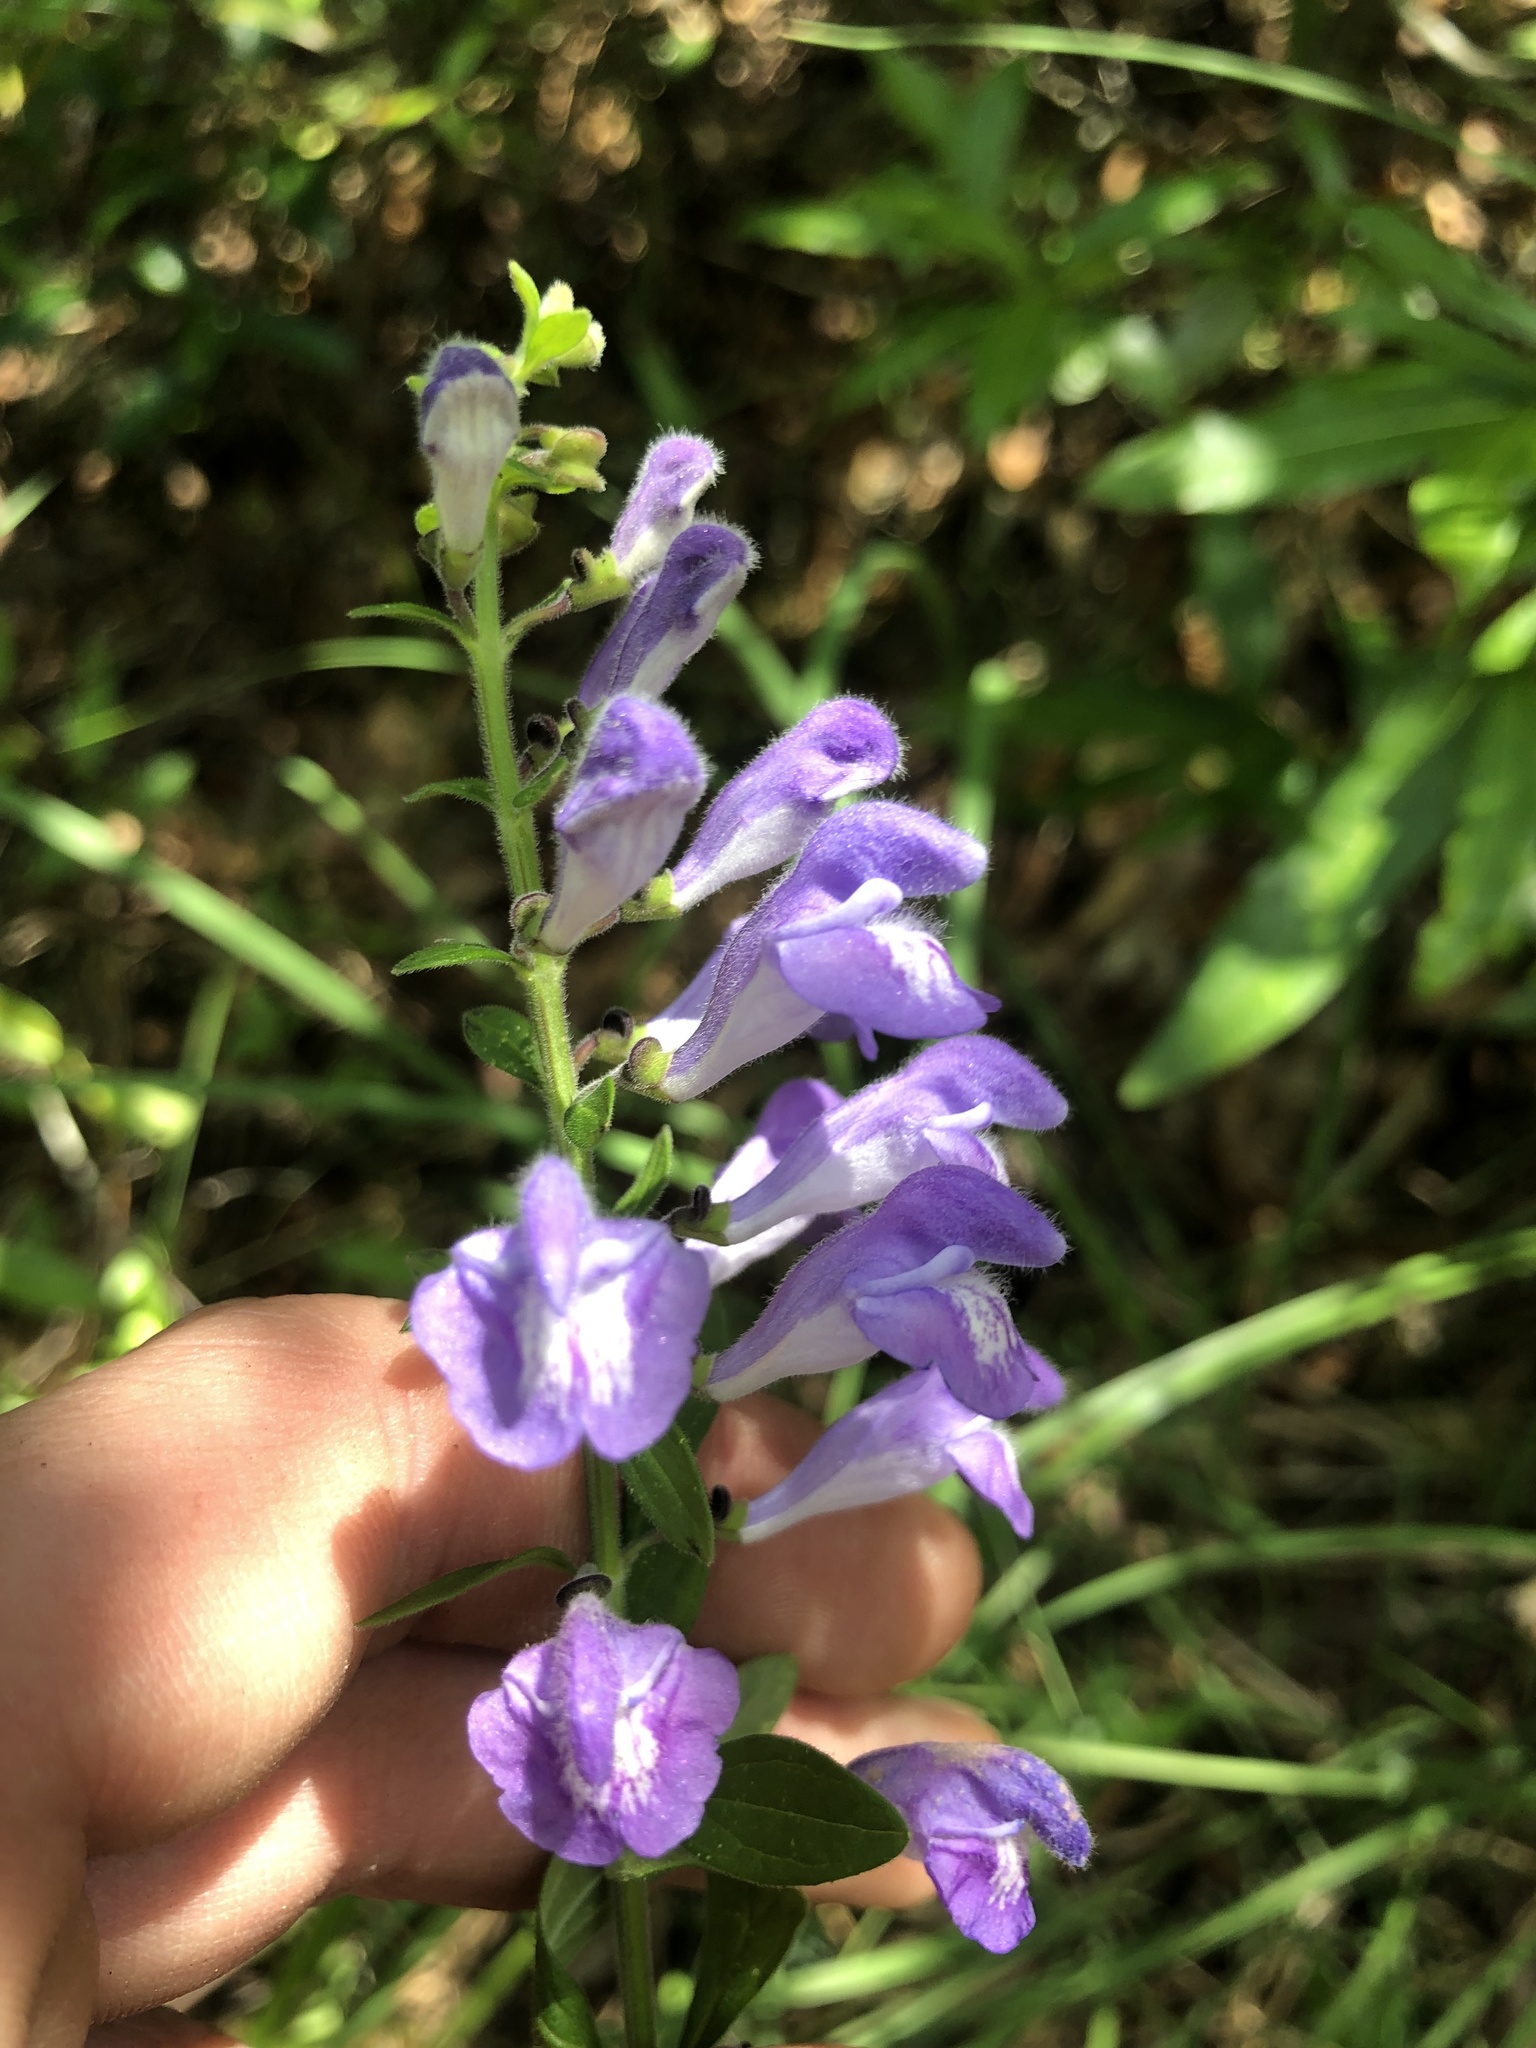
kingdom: Plantae
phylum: Tracheophyta
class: Magnoliopsida
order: Lamiales
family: Lamiaceae
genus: Scutellaria
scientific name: Scutellaria integrifolia
